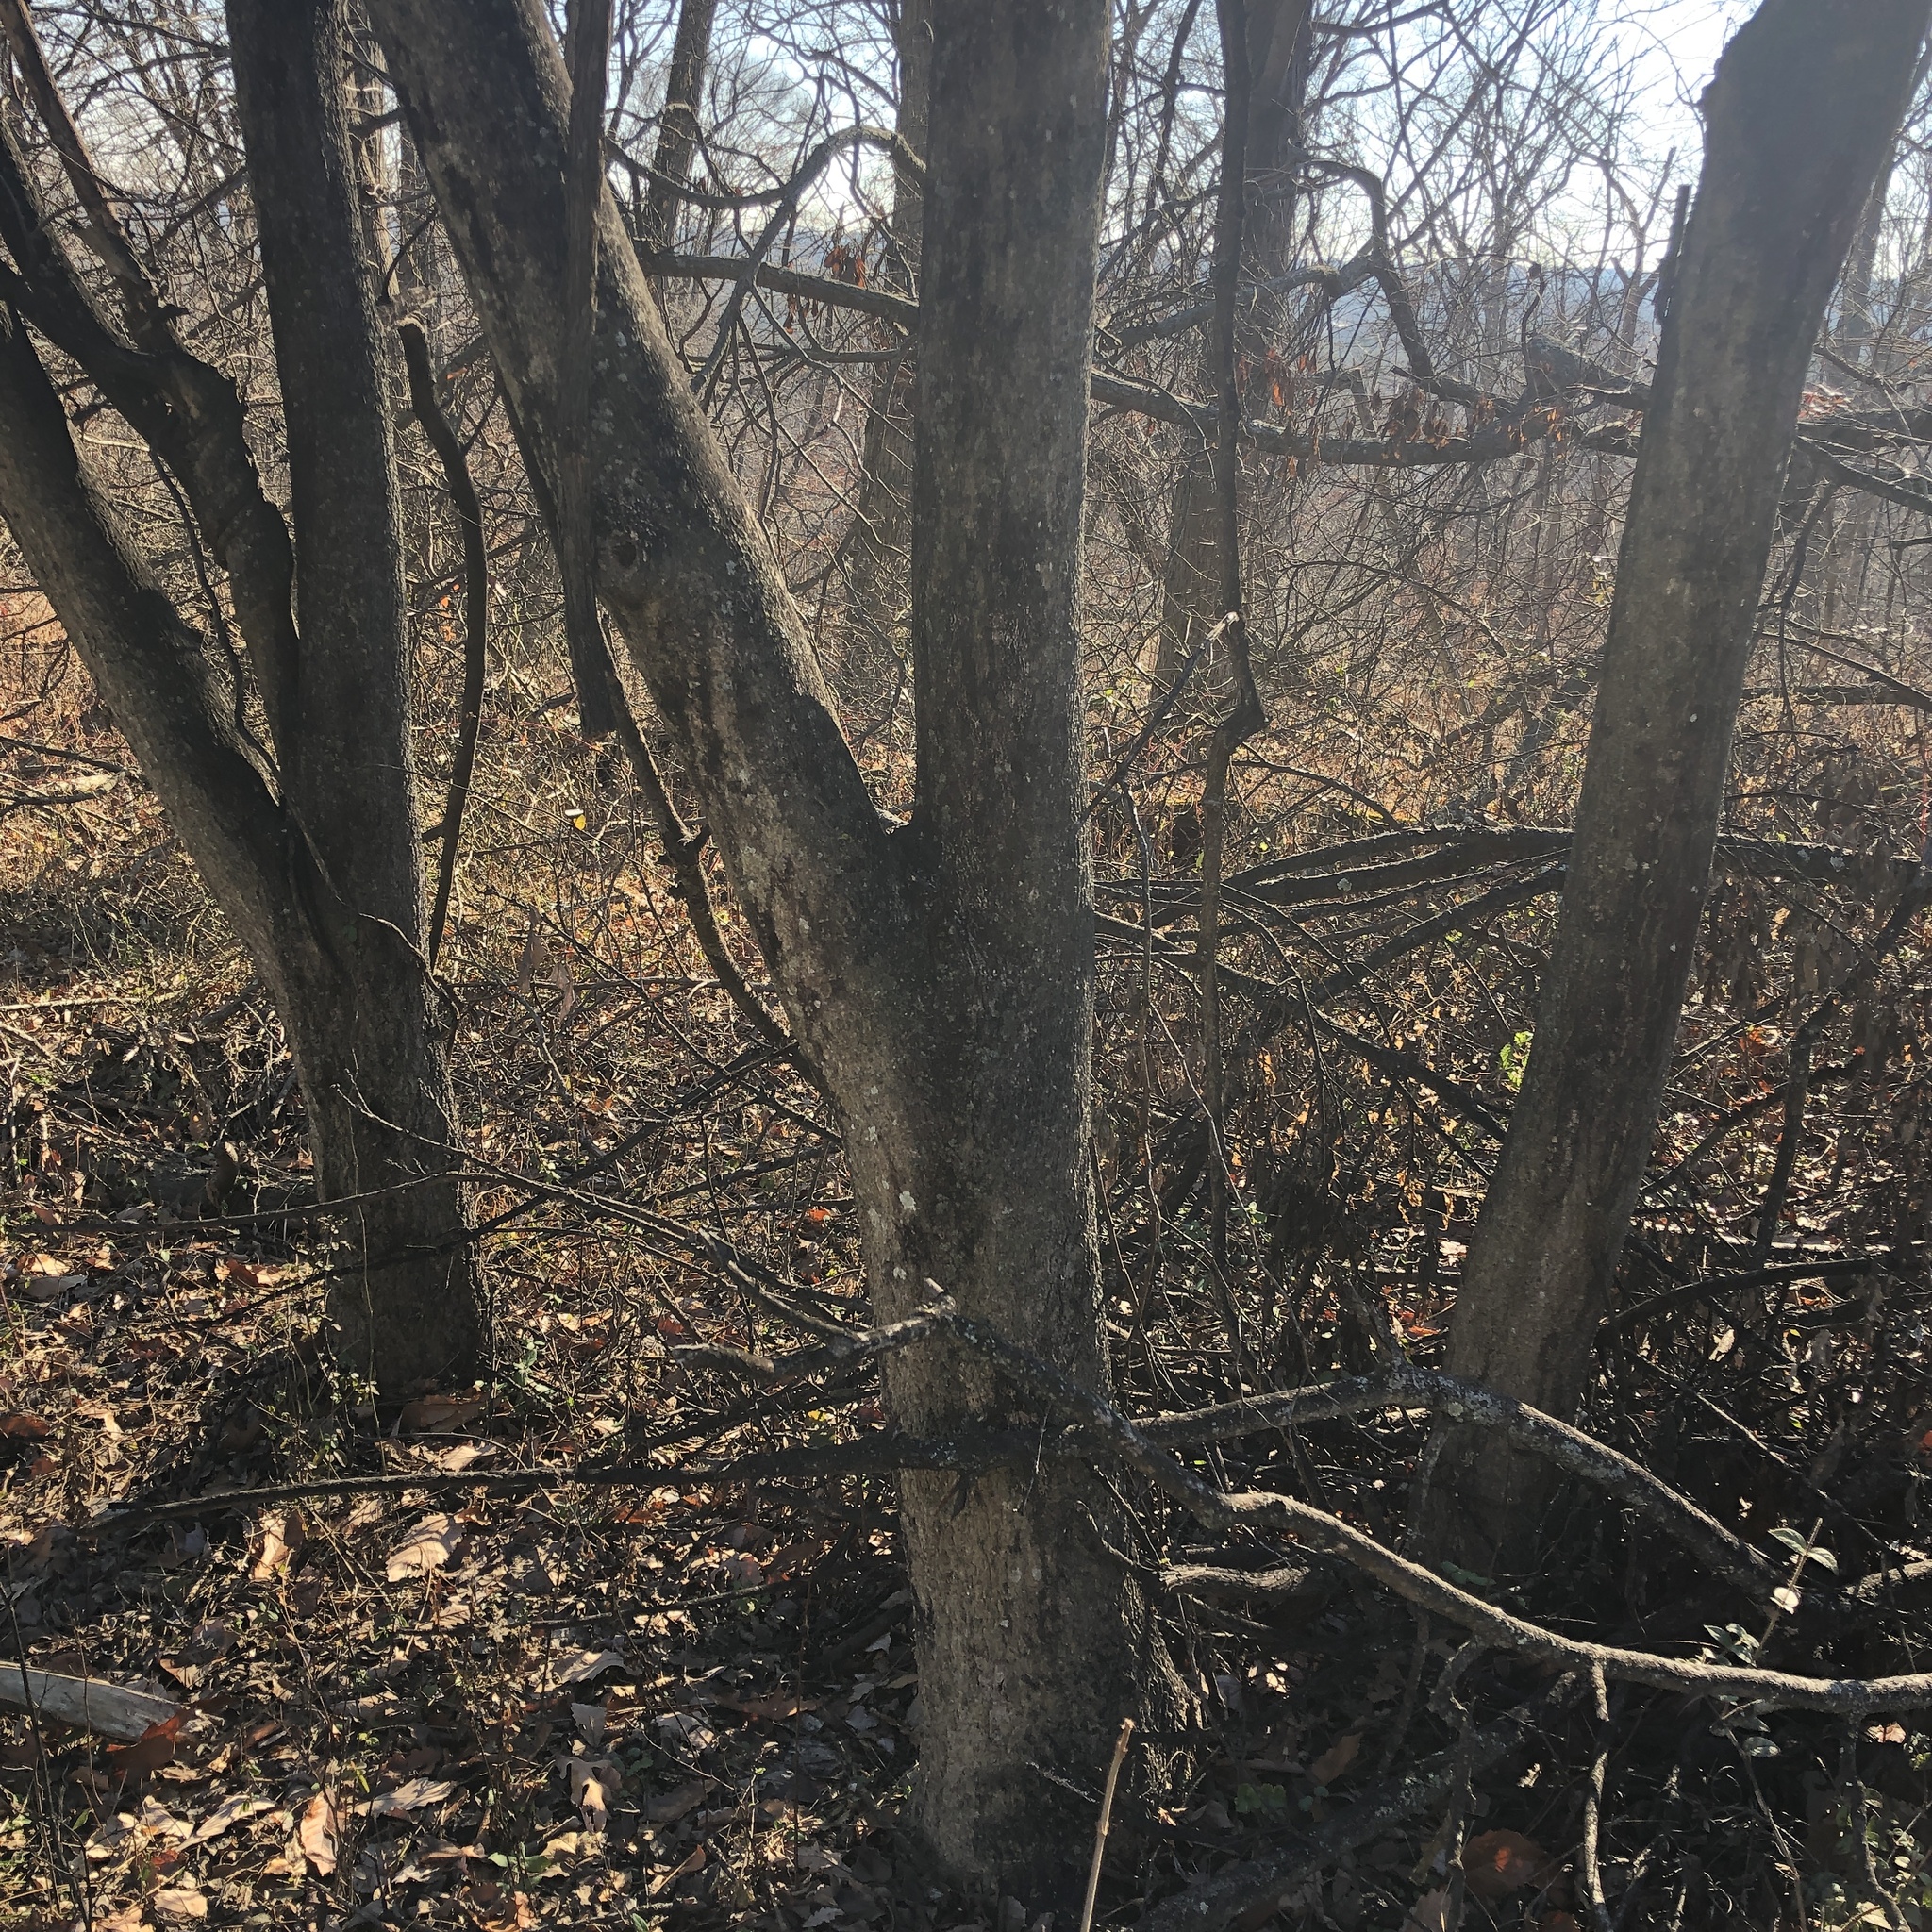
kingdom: Plantae
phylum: Tracheophyta
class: Magnoliopsida
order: Sapindales
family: Rutaceae
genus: Phellodendron
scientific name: Phellodendron amurense
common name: Amur corktree
